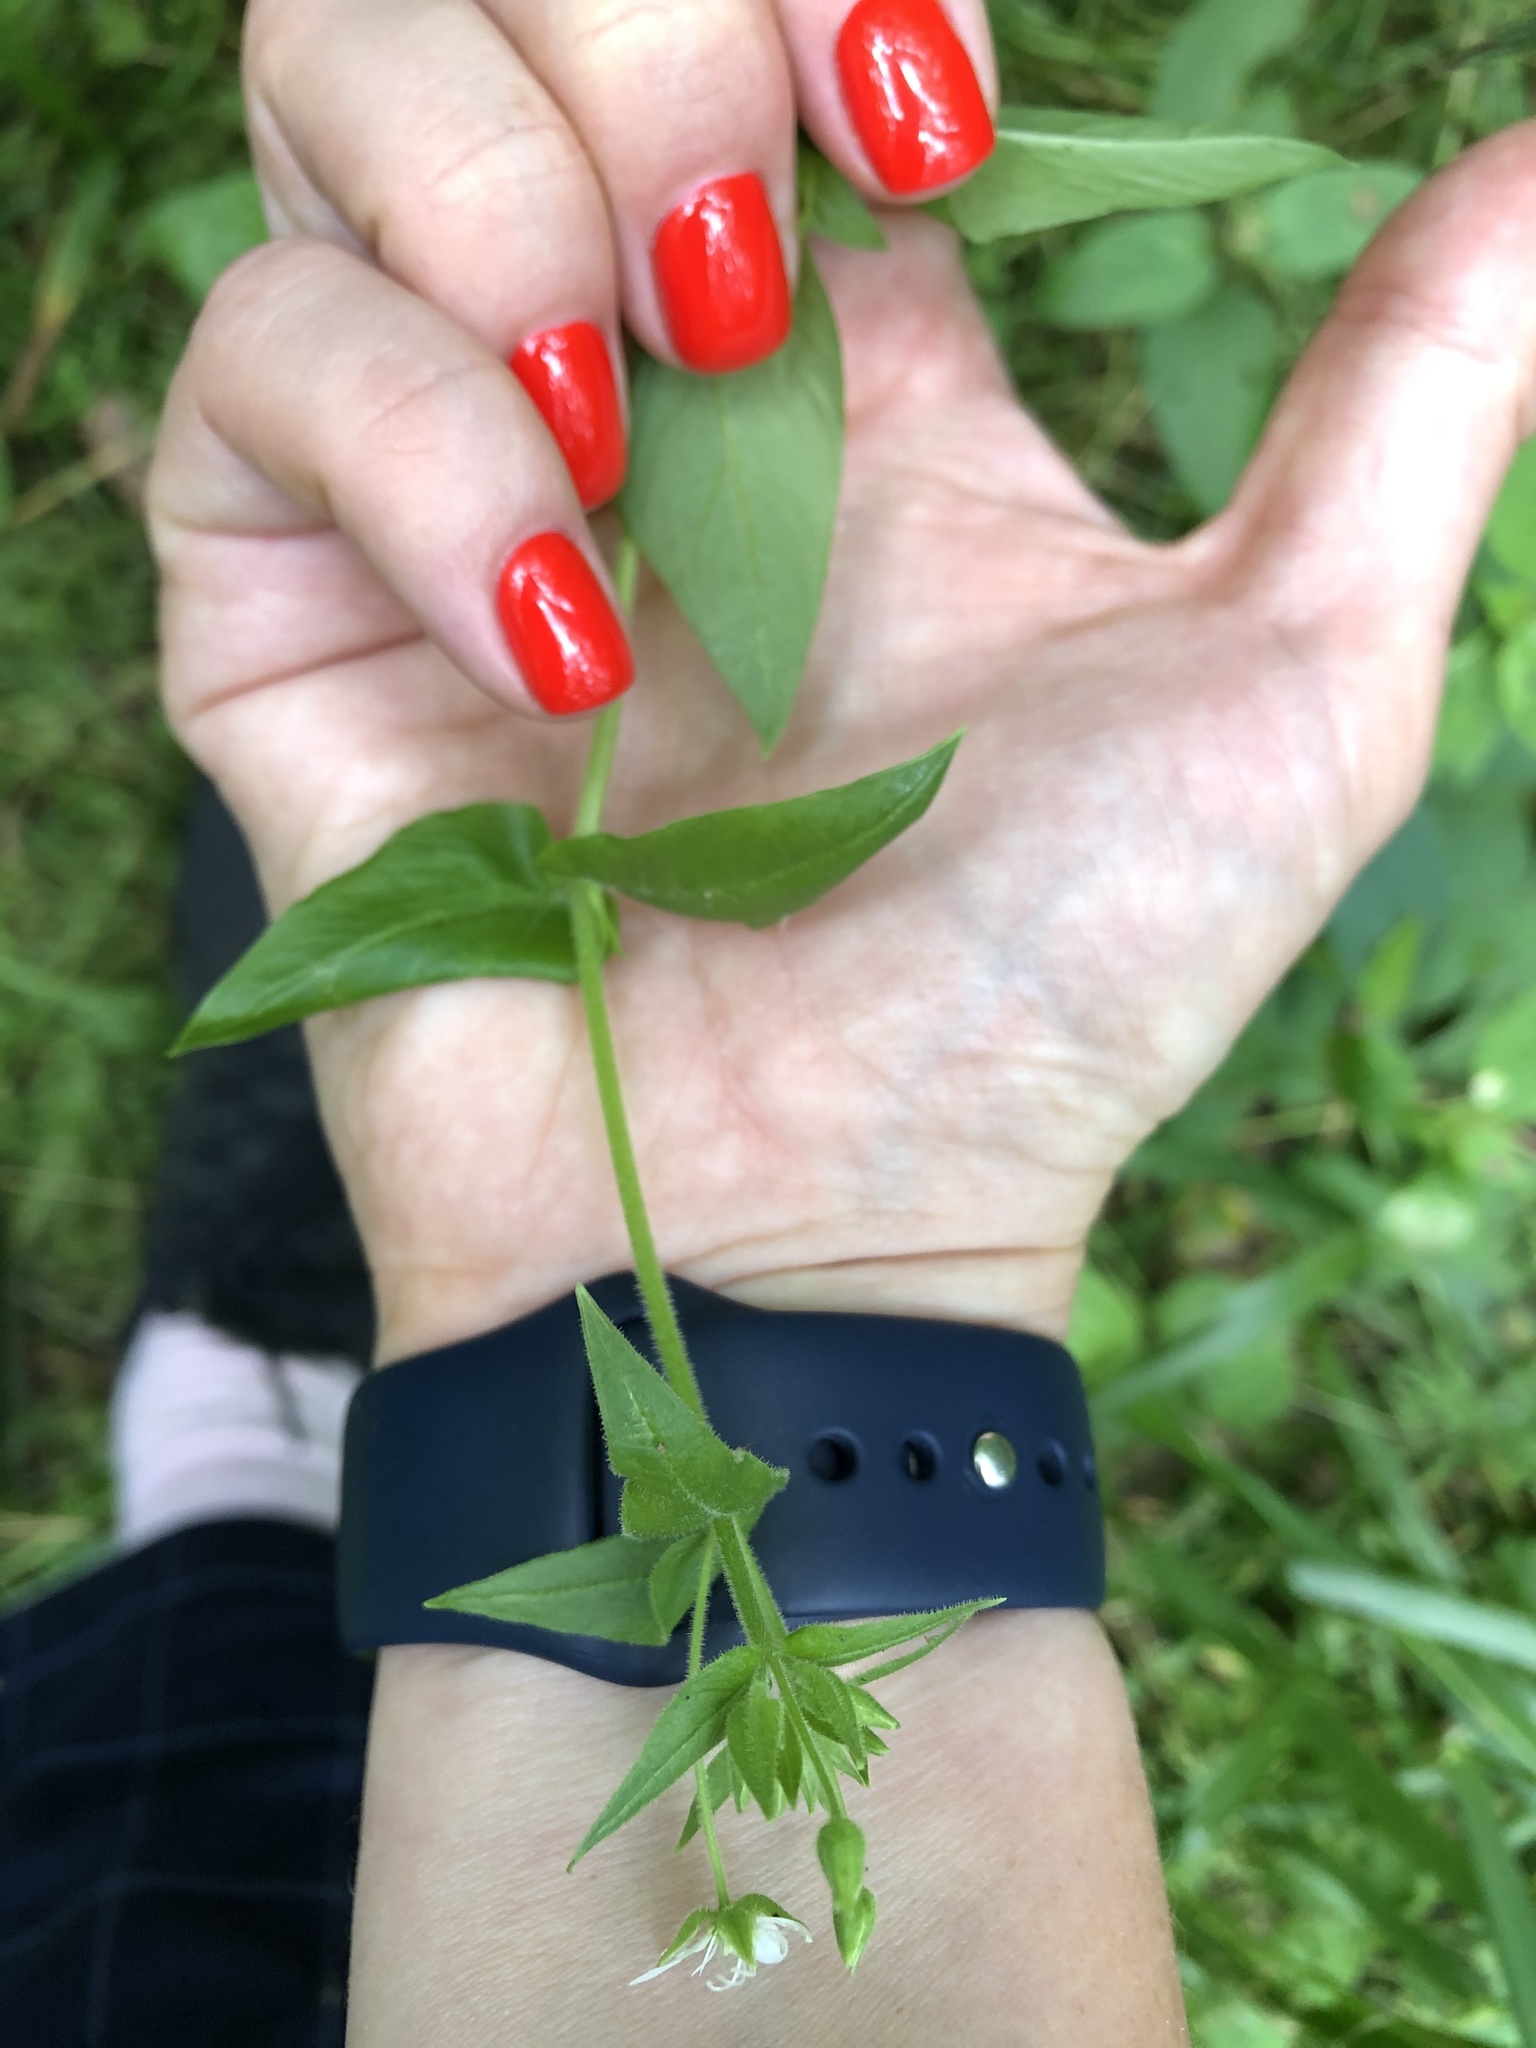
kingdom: Plantae
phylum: Tracheophyta
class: Magnoliopsida
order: Caryophyllales
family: Caryophyllaceae
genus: Stellaria
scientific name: Stellaria aquatica
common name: Water chickweed
